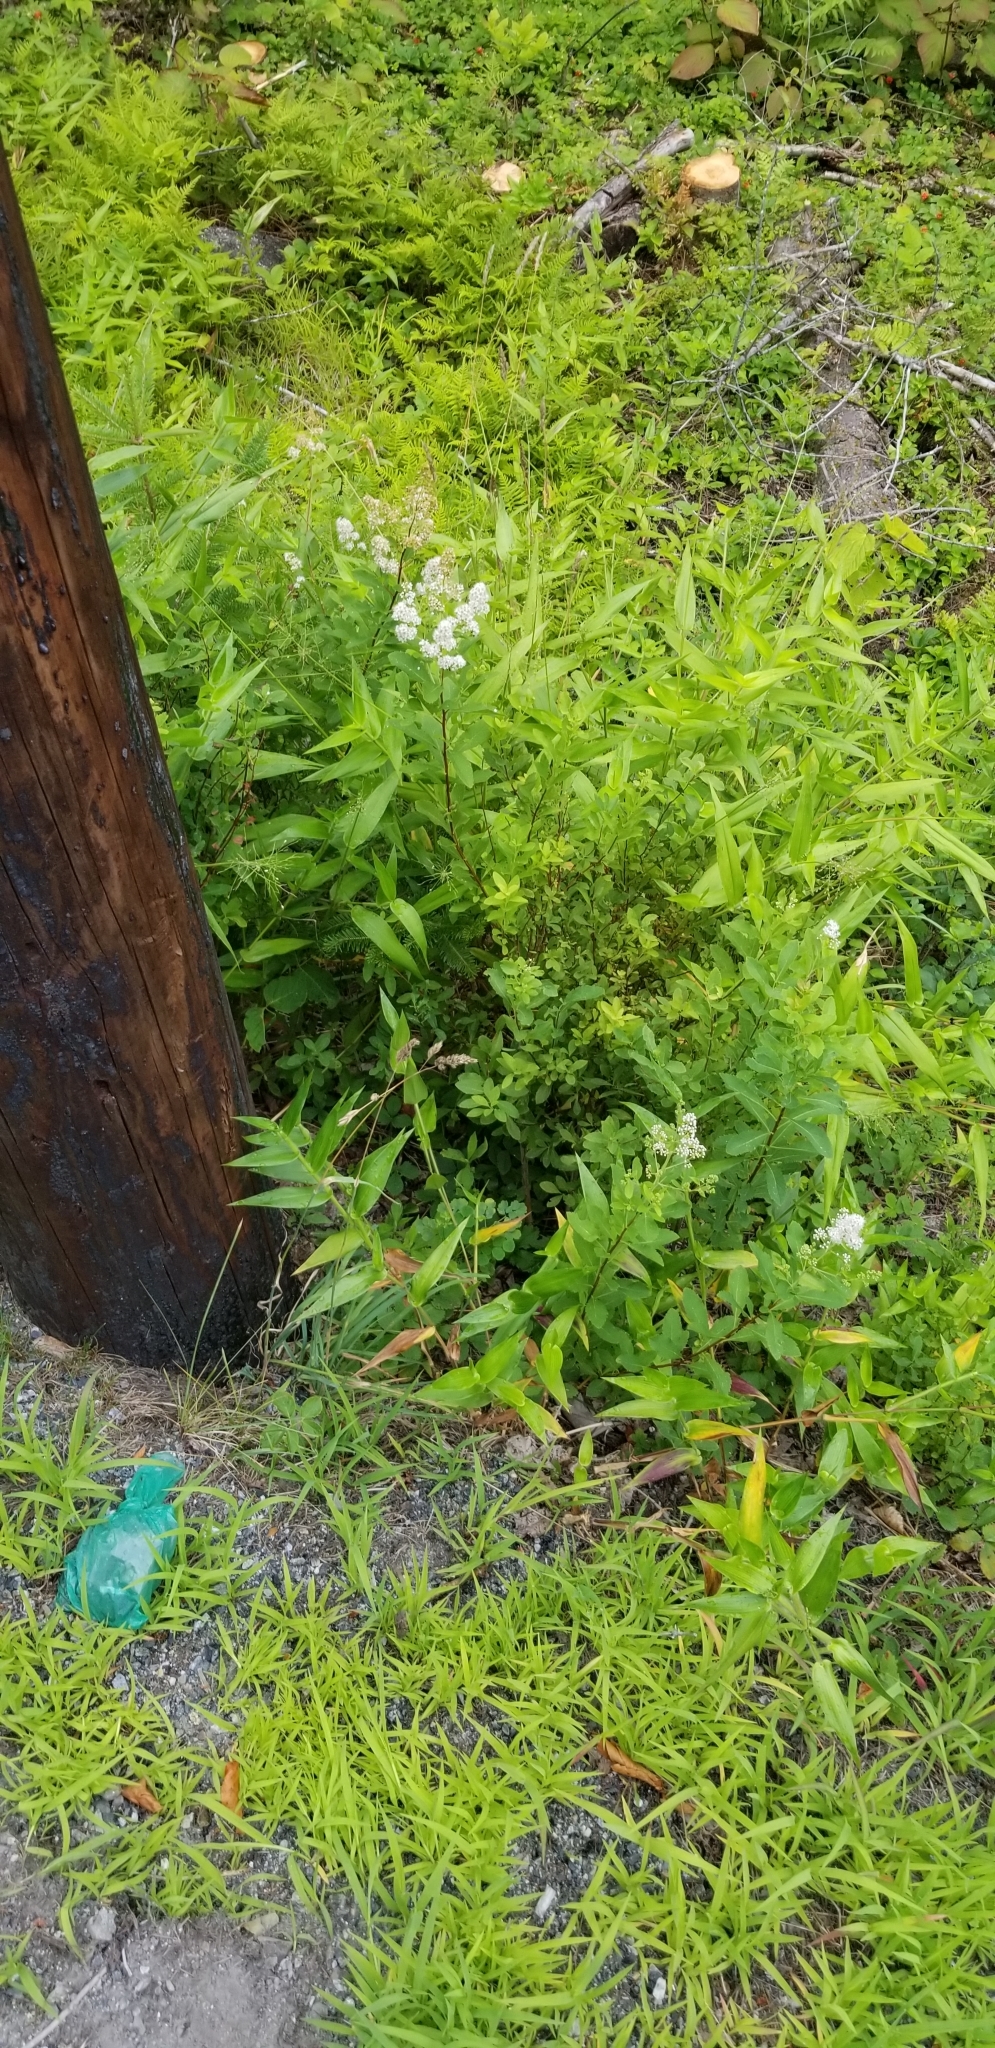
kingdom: Plantae
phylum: Tracheophyta
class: Magnoliopsida
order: Rosales
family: Rosaceae
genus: Spiraea
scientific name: Spiraea alba
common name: Pale bridewort
